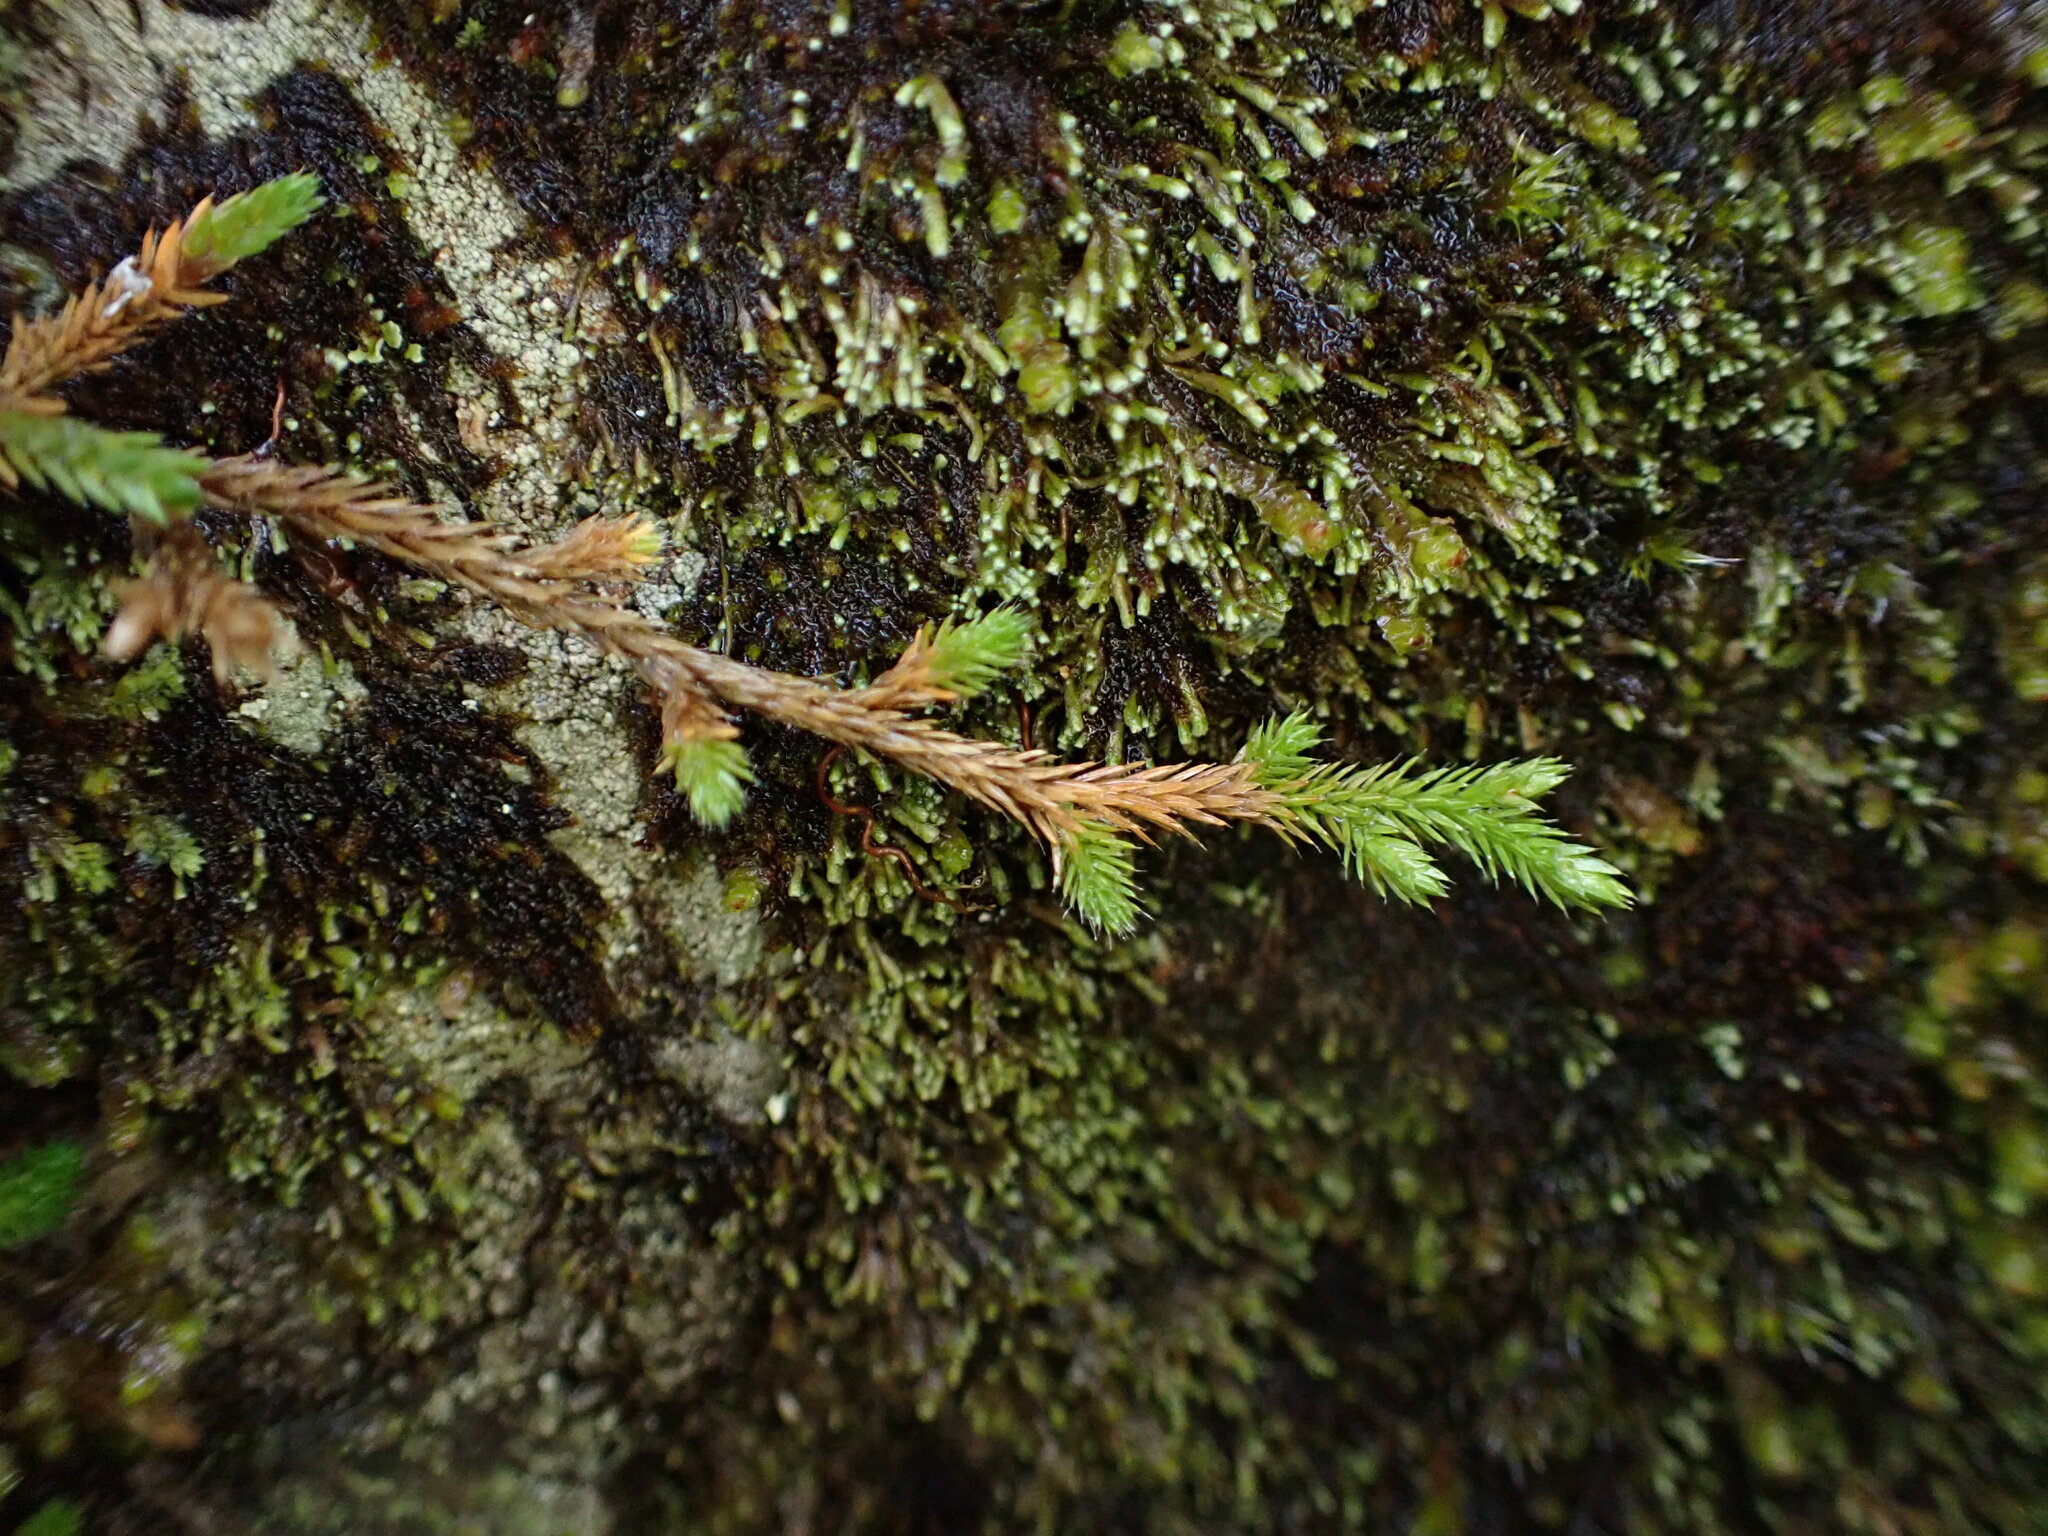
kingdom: Plantae
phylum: Tracheophyta
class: Lycopodiopsida
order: Selaginellales
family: Selaginellaceae
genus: Selaginella
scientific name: Selaginella wallacei
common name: Wallace's selaginella
